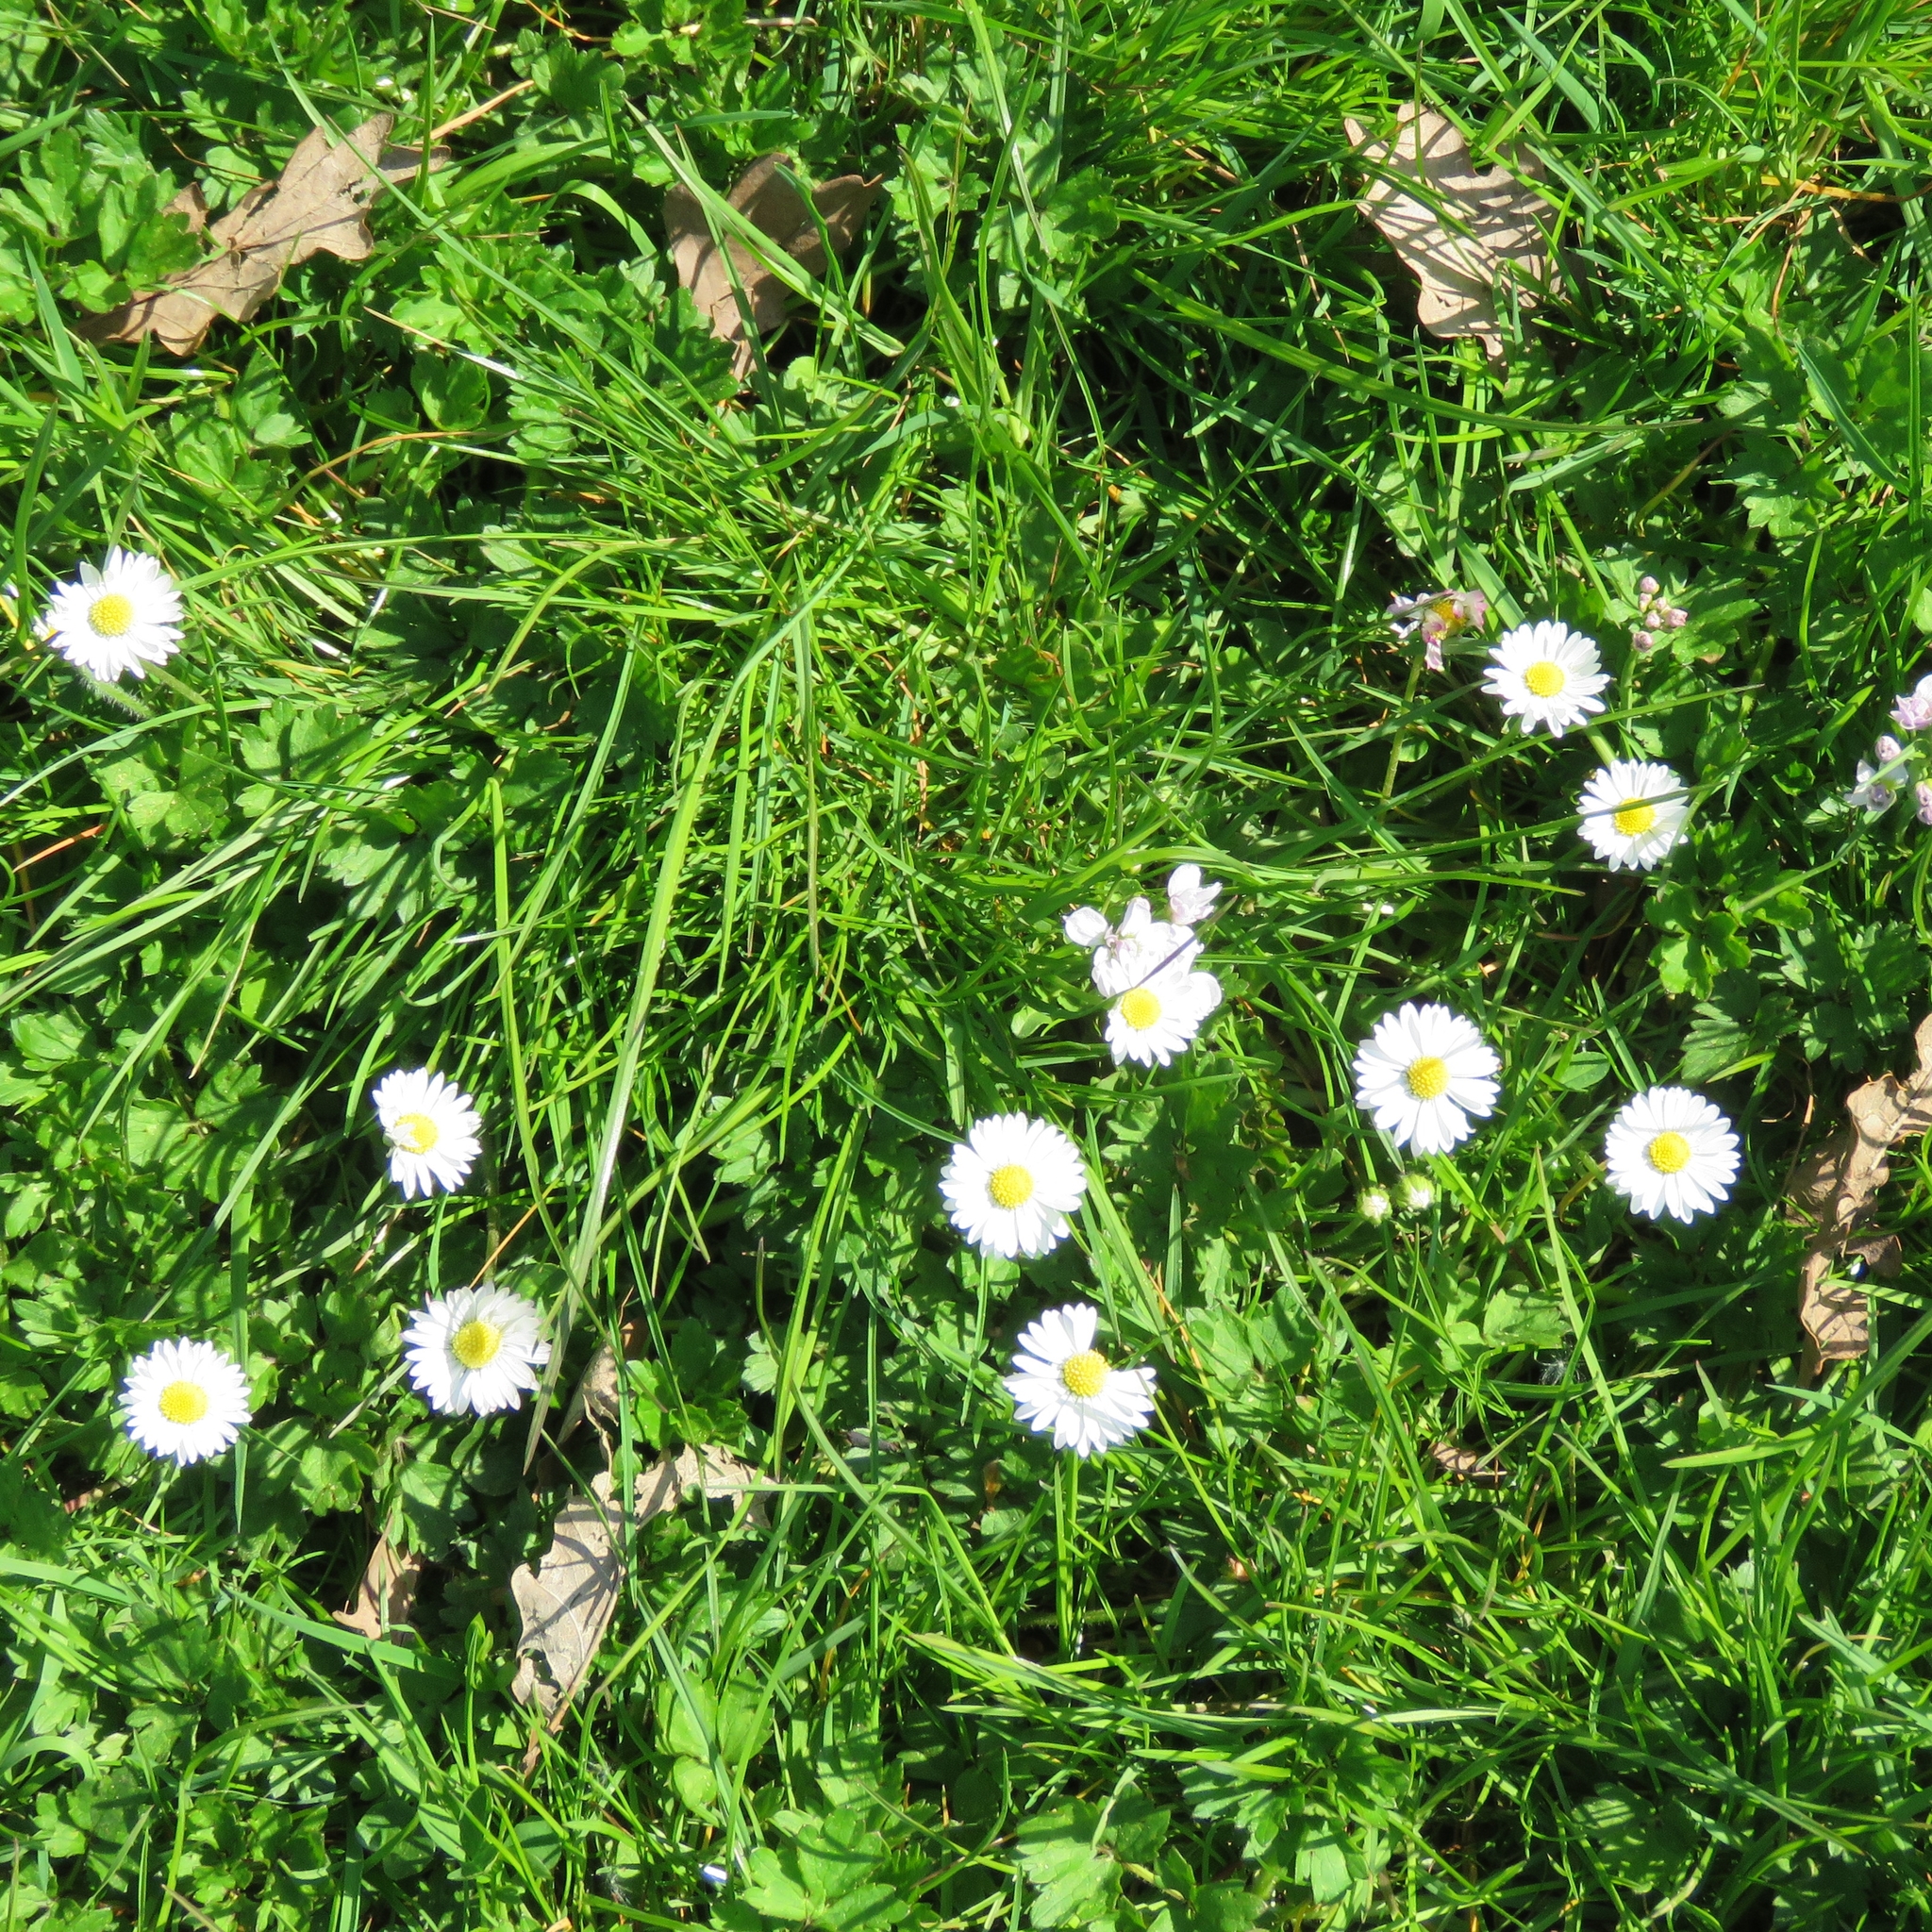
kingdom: Plantae
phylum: Tracheophyta
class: Magnoliopsida
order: Asterales
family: Asteraceae
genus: Bellis
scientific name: Bellis perennis
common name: Lawndaisy
